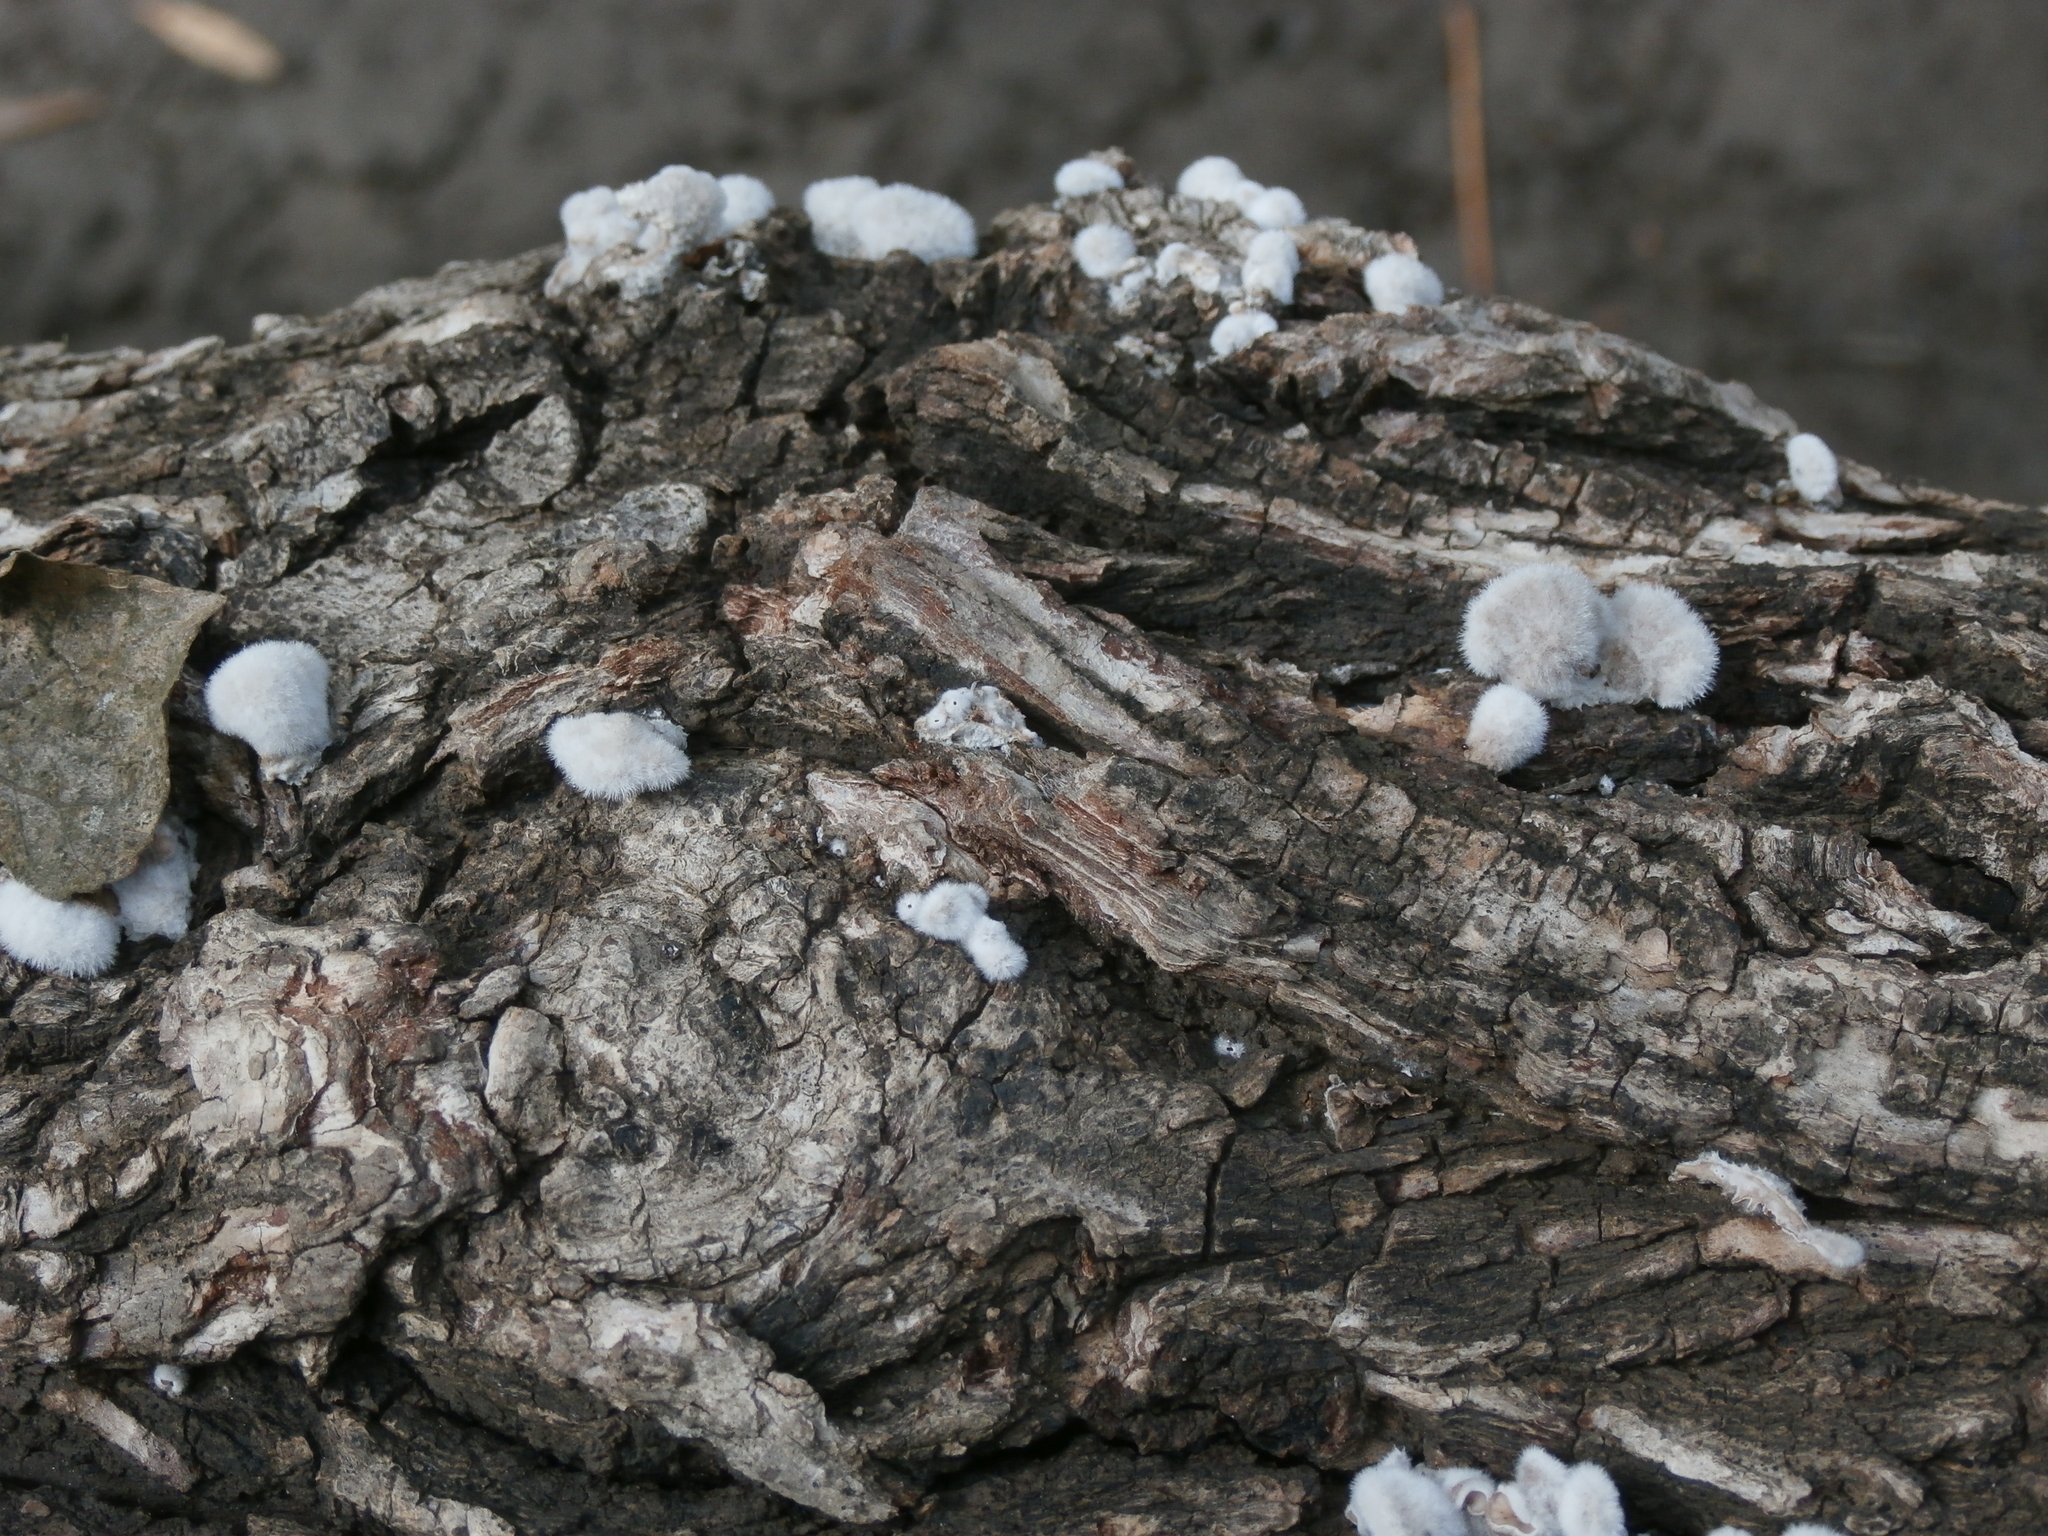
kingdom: Fungi
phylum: Basidiomycota
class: Agaricomycetes
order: Agaricales
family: Schizophyllaceae
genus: Schizophyllum
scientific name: Schizophyllum commune
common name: Common porecrust
